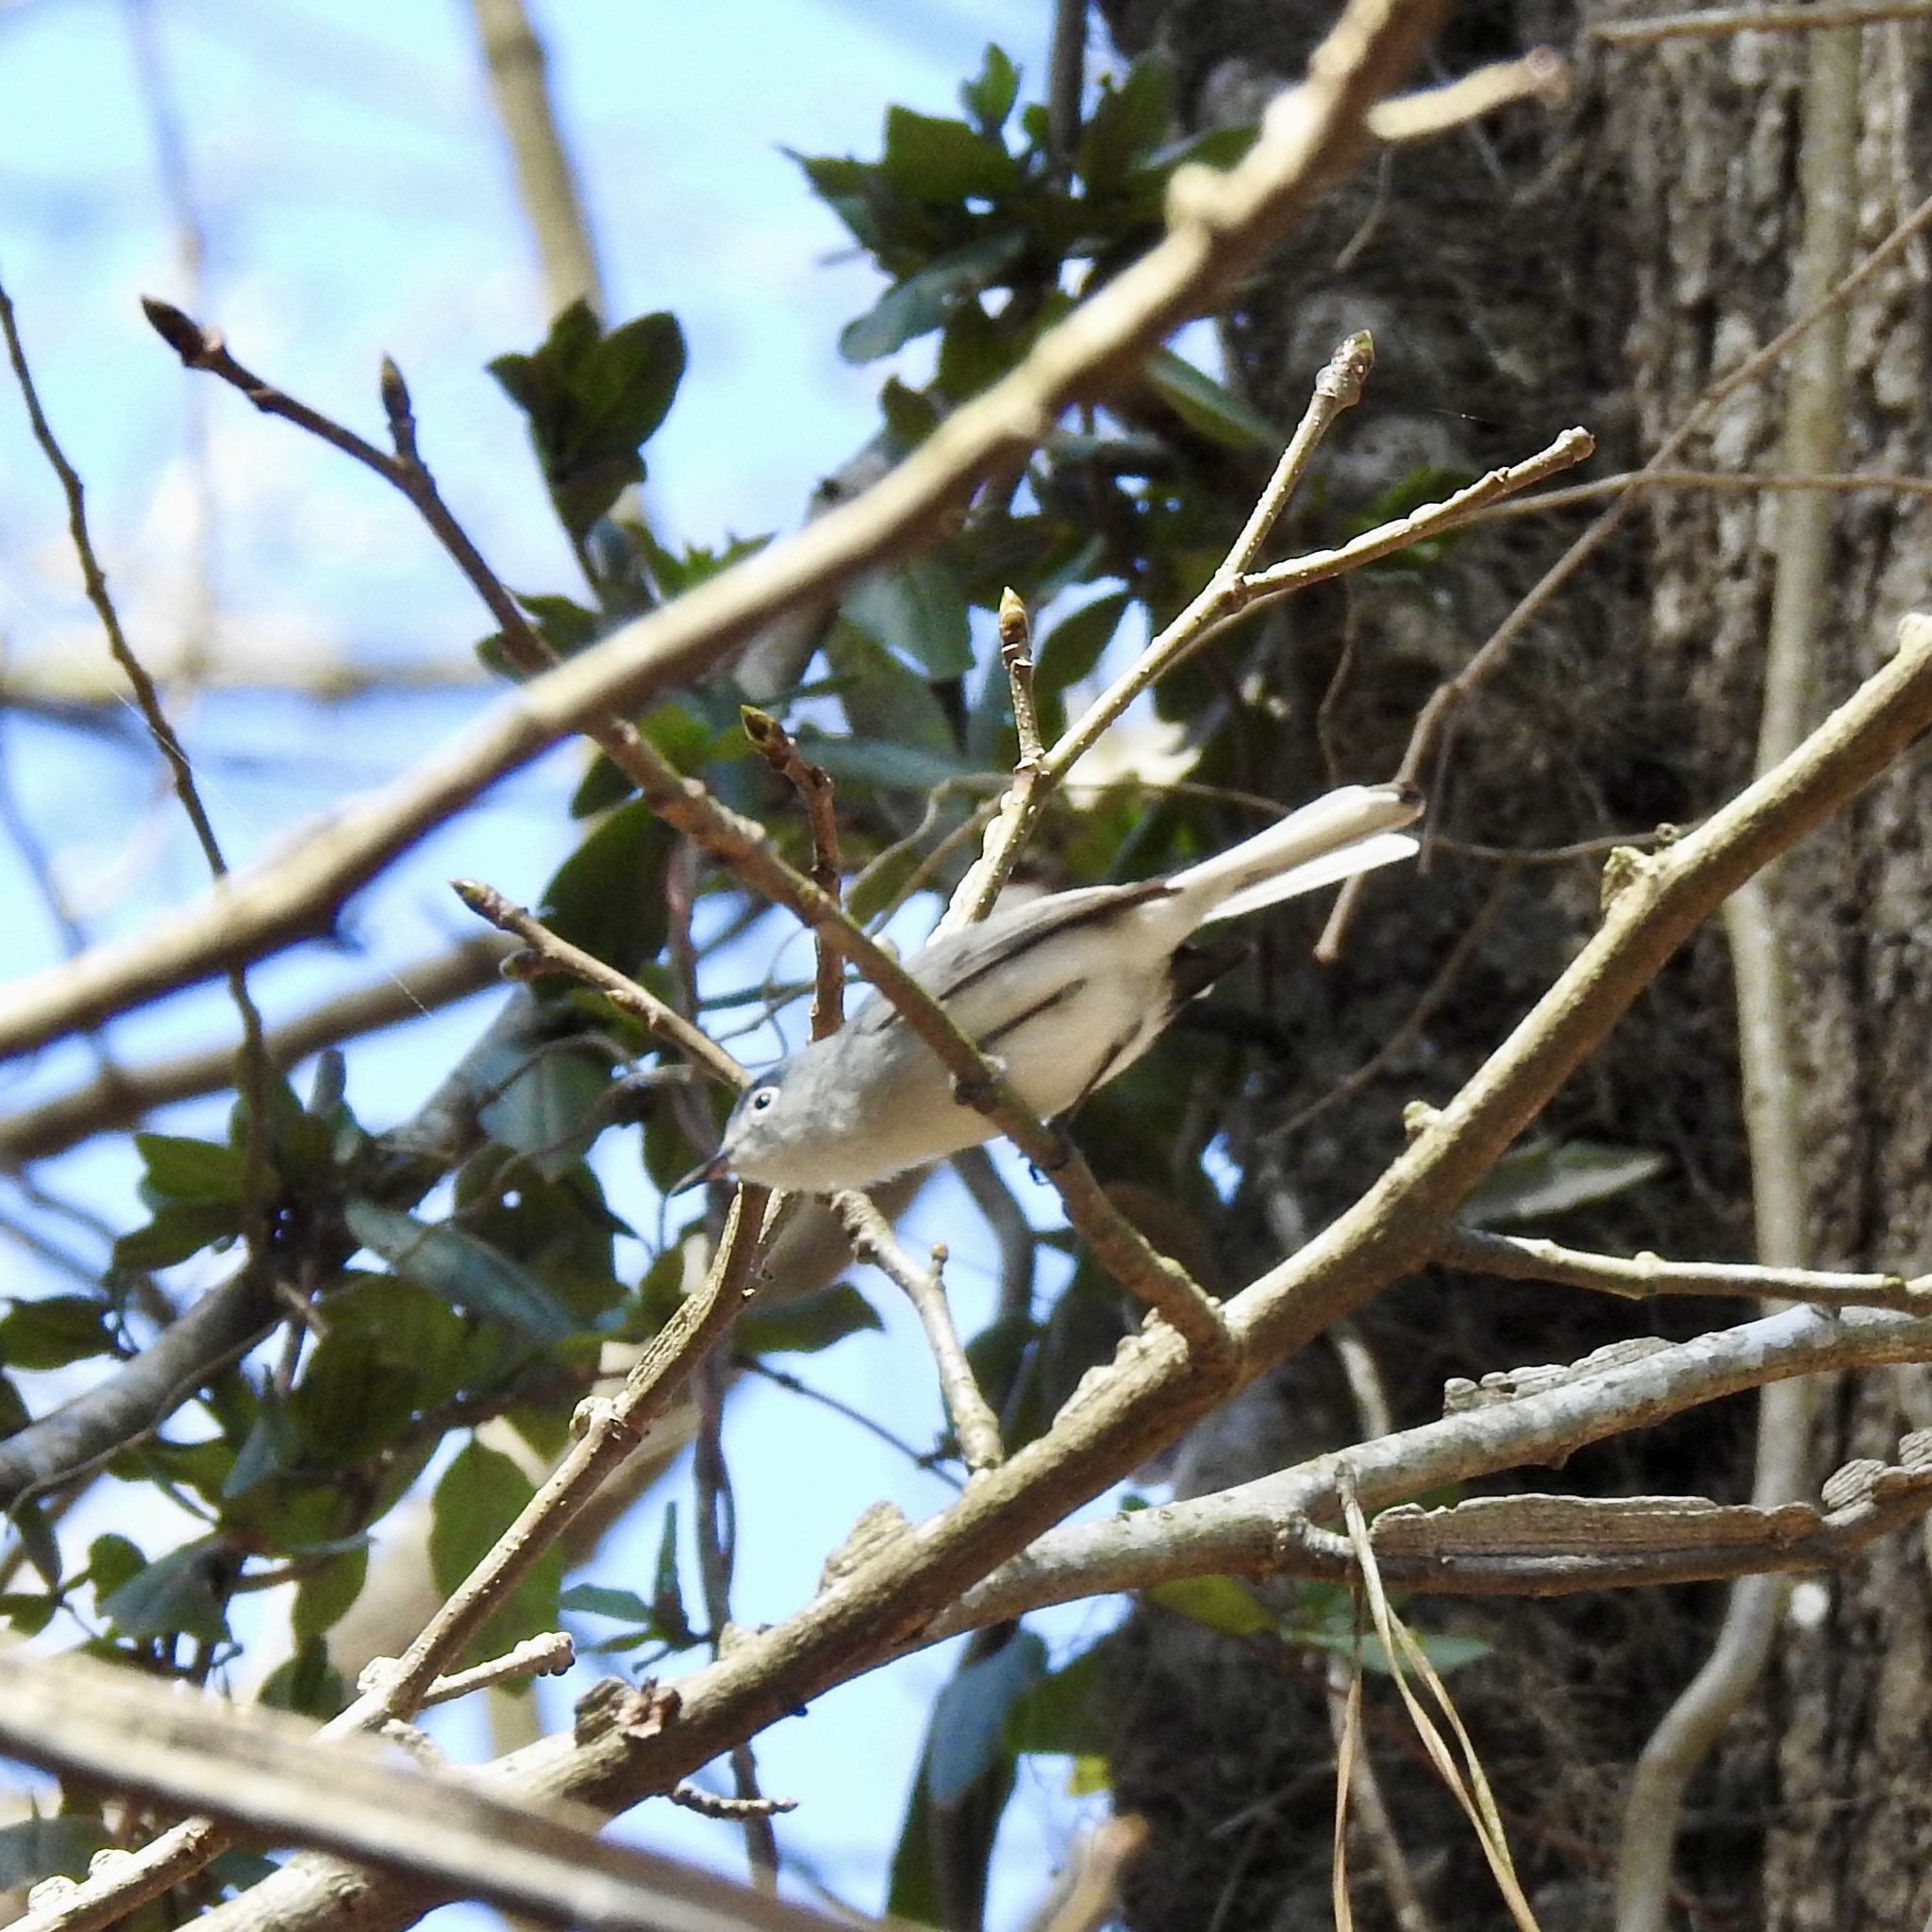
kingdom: Animalia
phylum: Chordata
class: Aves
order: Passeriformes
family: Polioptilidae
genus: Polioptila
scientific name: Polioptila caerulea
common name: Blue-gray gnatcatcher
